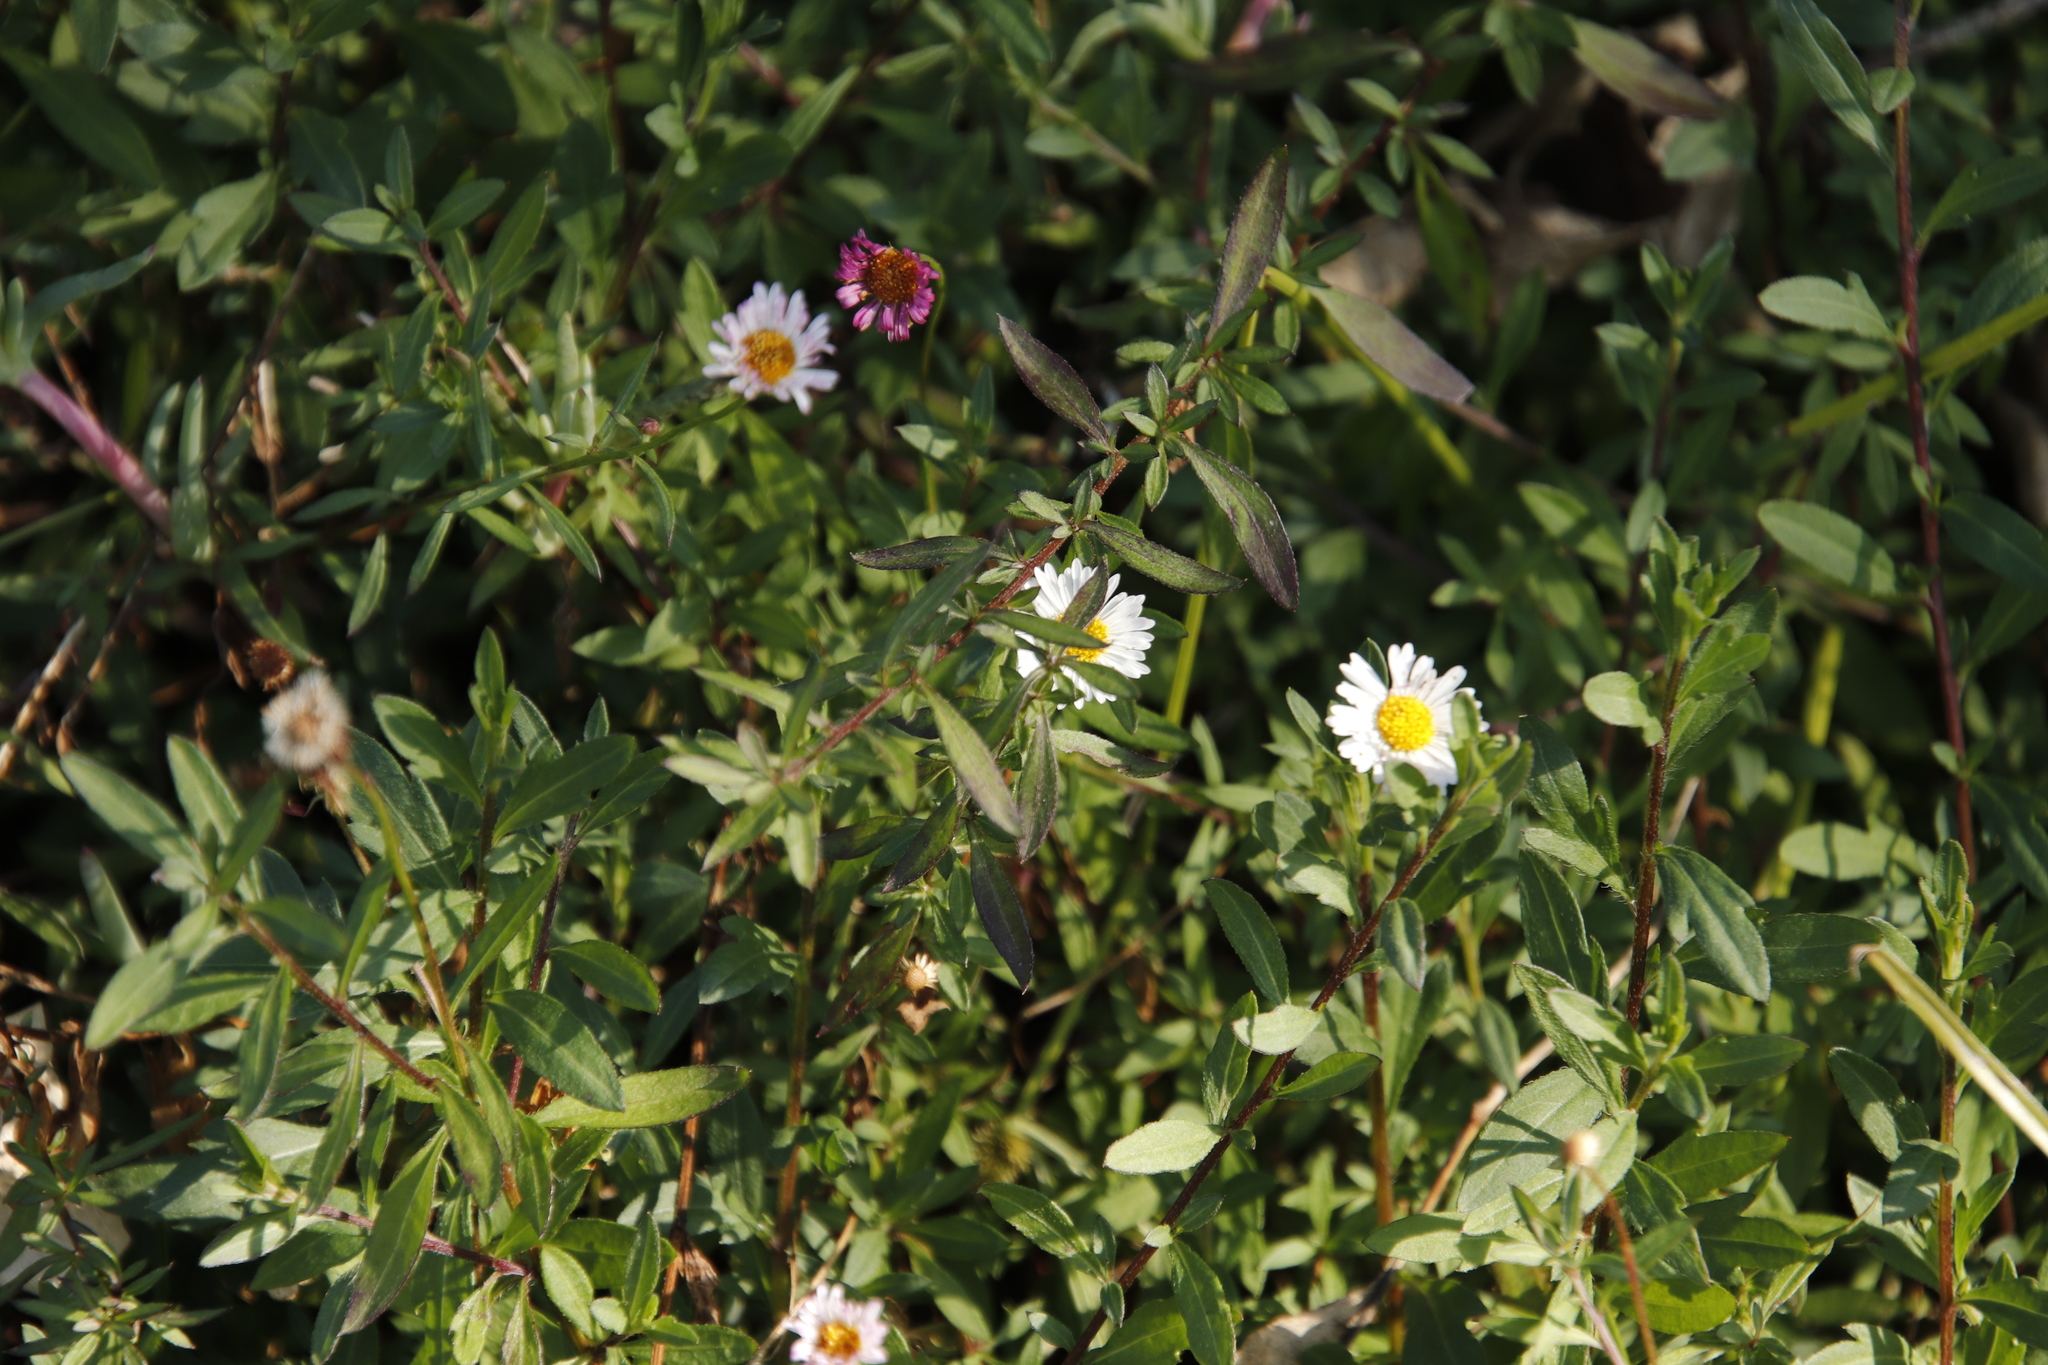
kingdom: Plantae
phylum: Tracheophyta
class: Magnoliopsida
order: Asterales
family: Asteraceae
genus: Erigeron
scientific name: Erigeron karvinskianus
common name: Mexican fleabane
